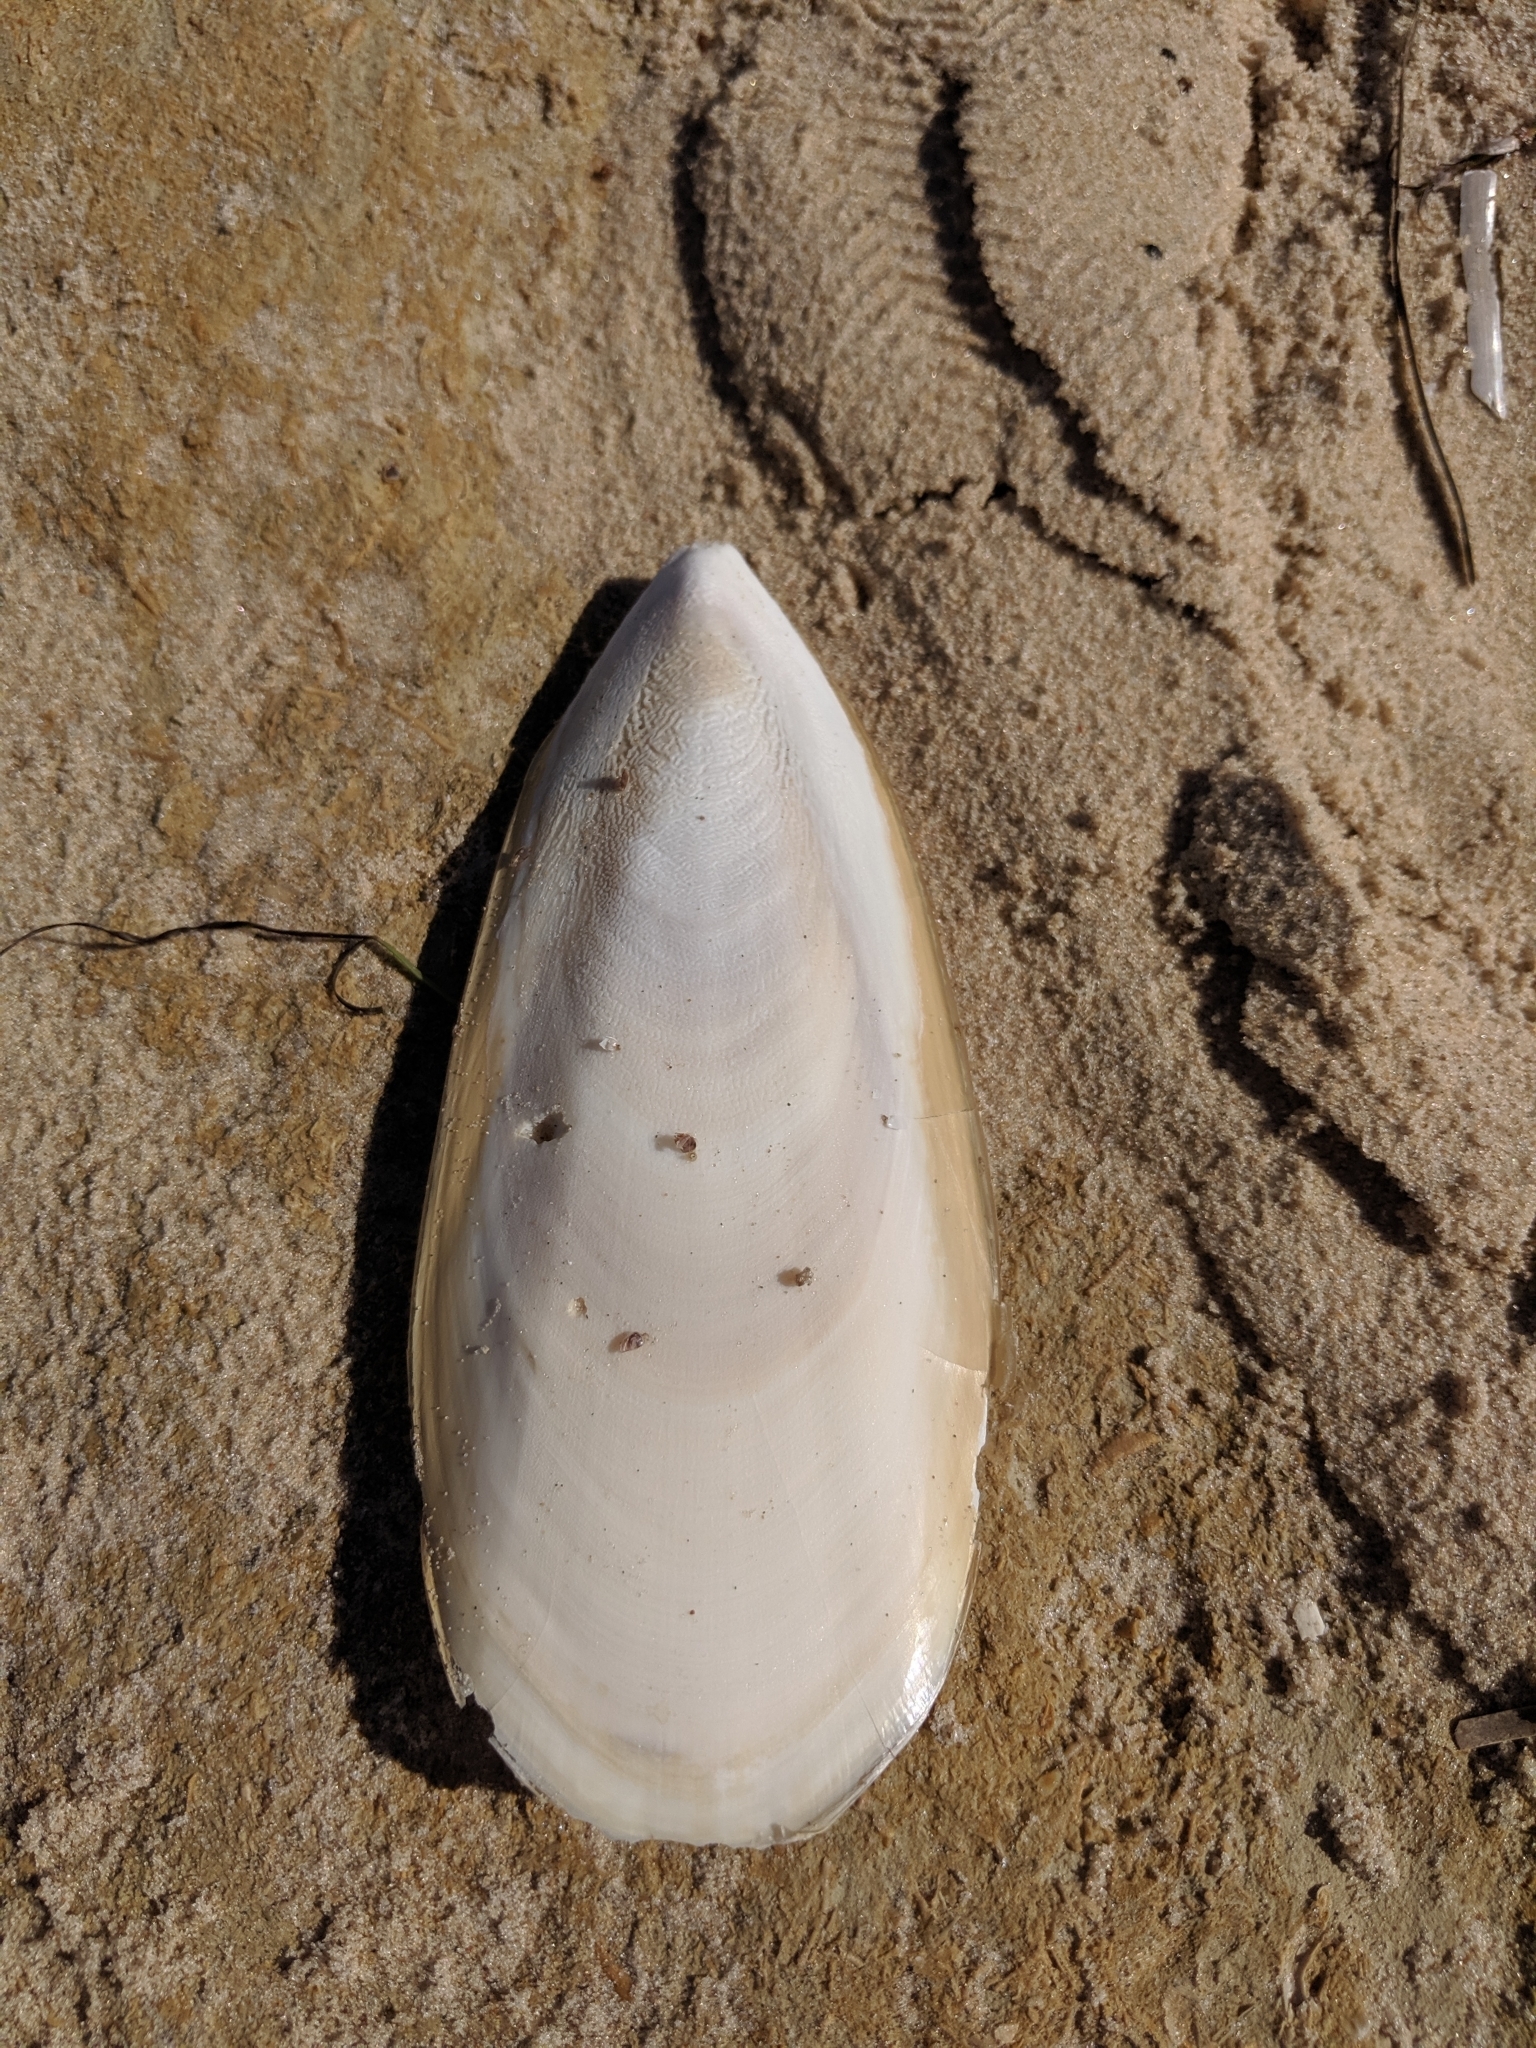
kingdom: Animalia
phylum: Mollusca
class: Cephalopoda
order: Sepiida
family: Sepiidae
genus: Ascarosepion
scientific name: Ascarosepion apama
